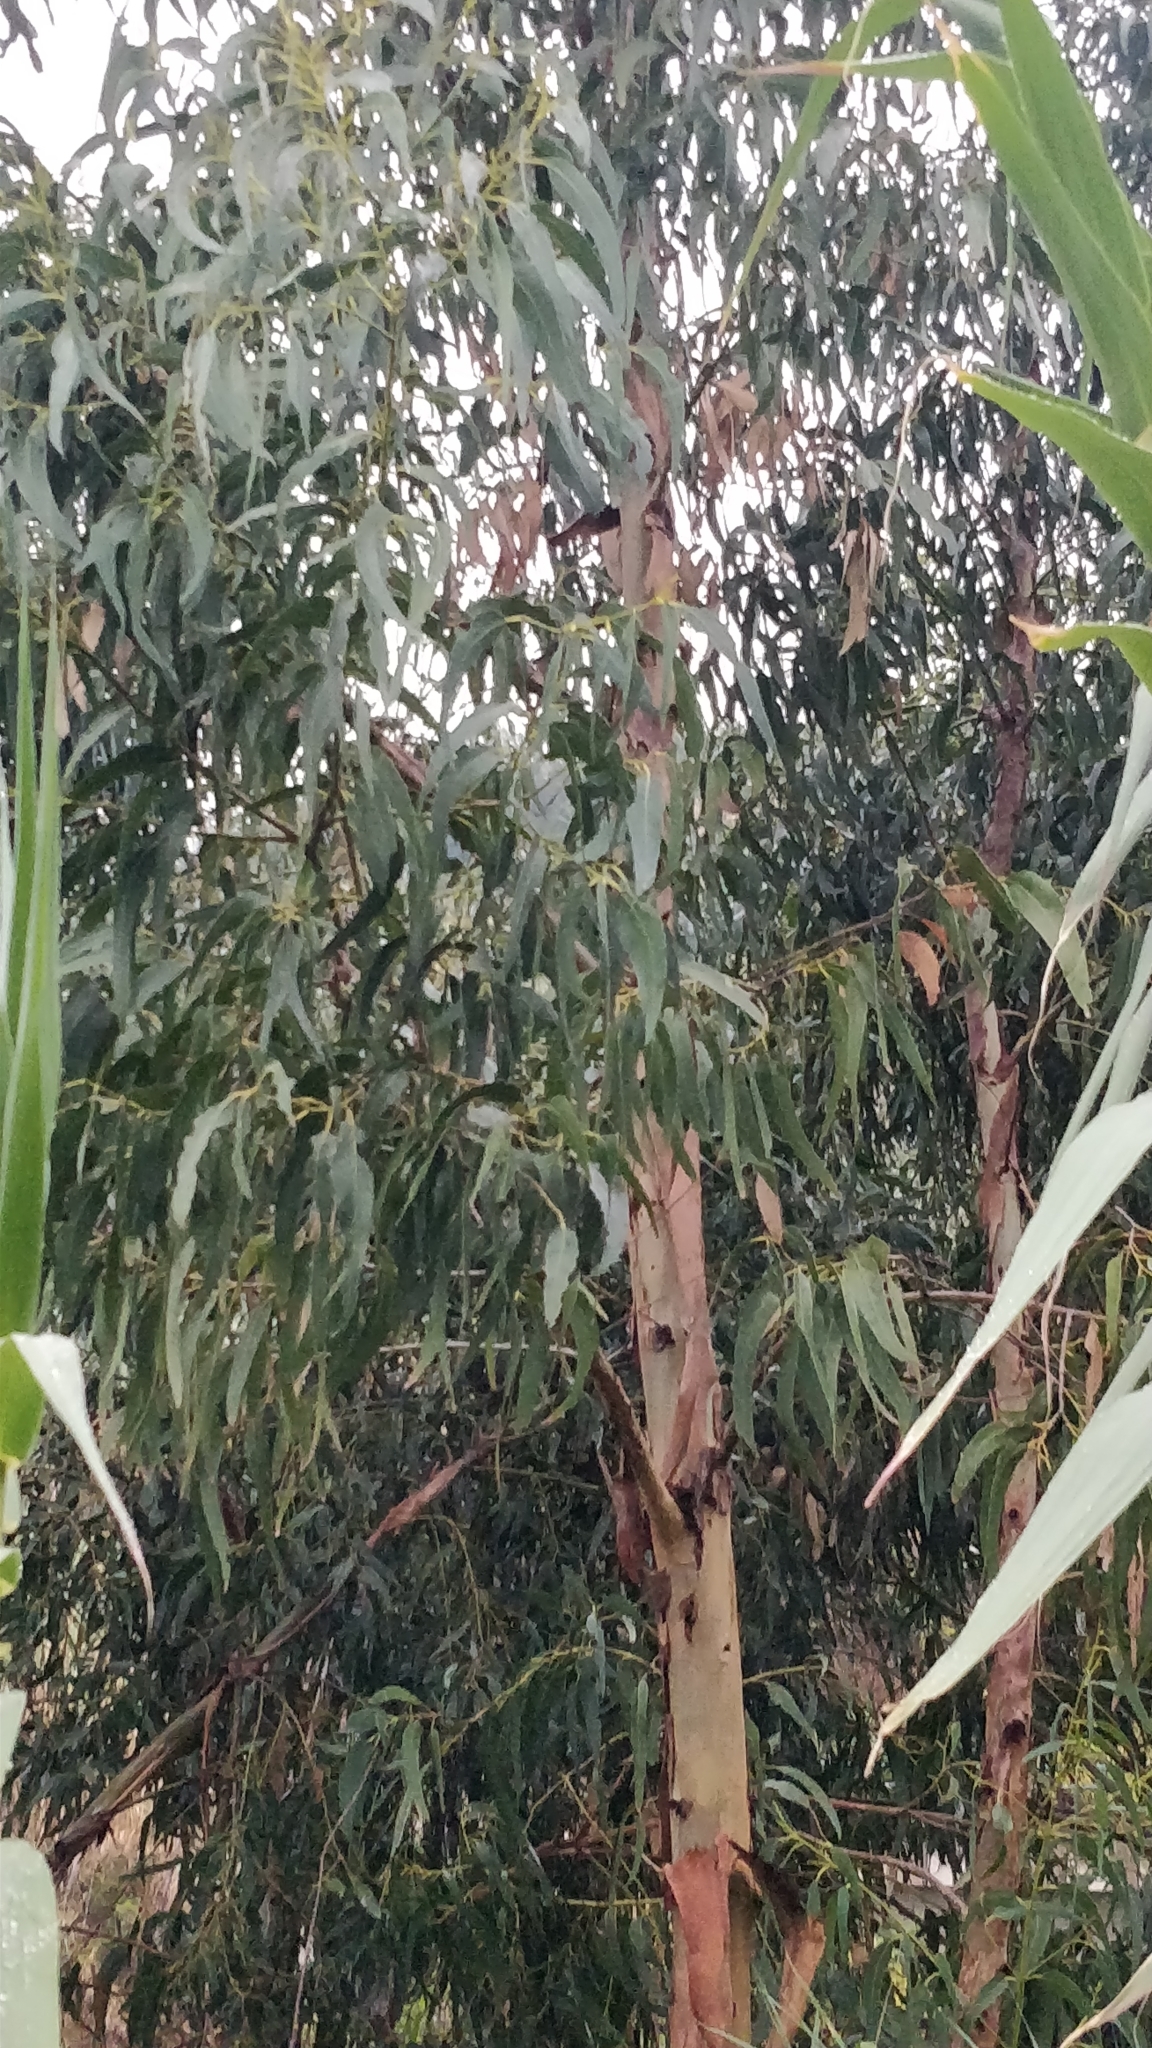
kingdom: Plantae
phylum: Tracheophyta
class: Magnoliopsida
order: Myrtales
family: Myrtaceae
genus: Eucalyptus
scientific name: Eucalyptus globulus
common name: Southern blue-gum
